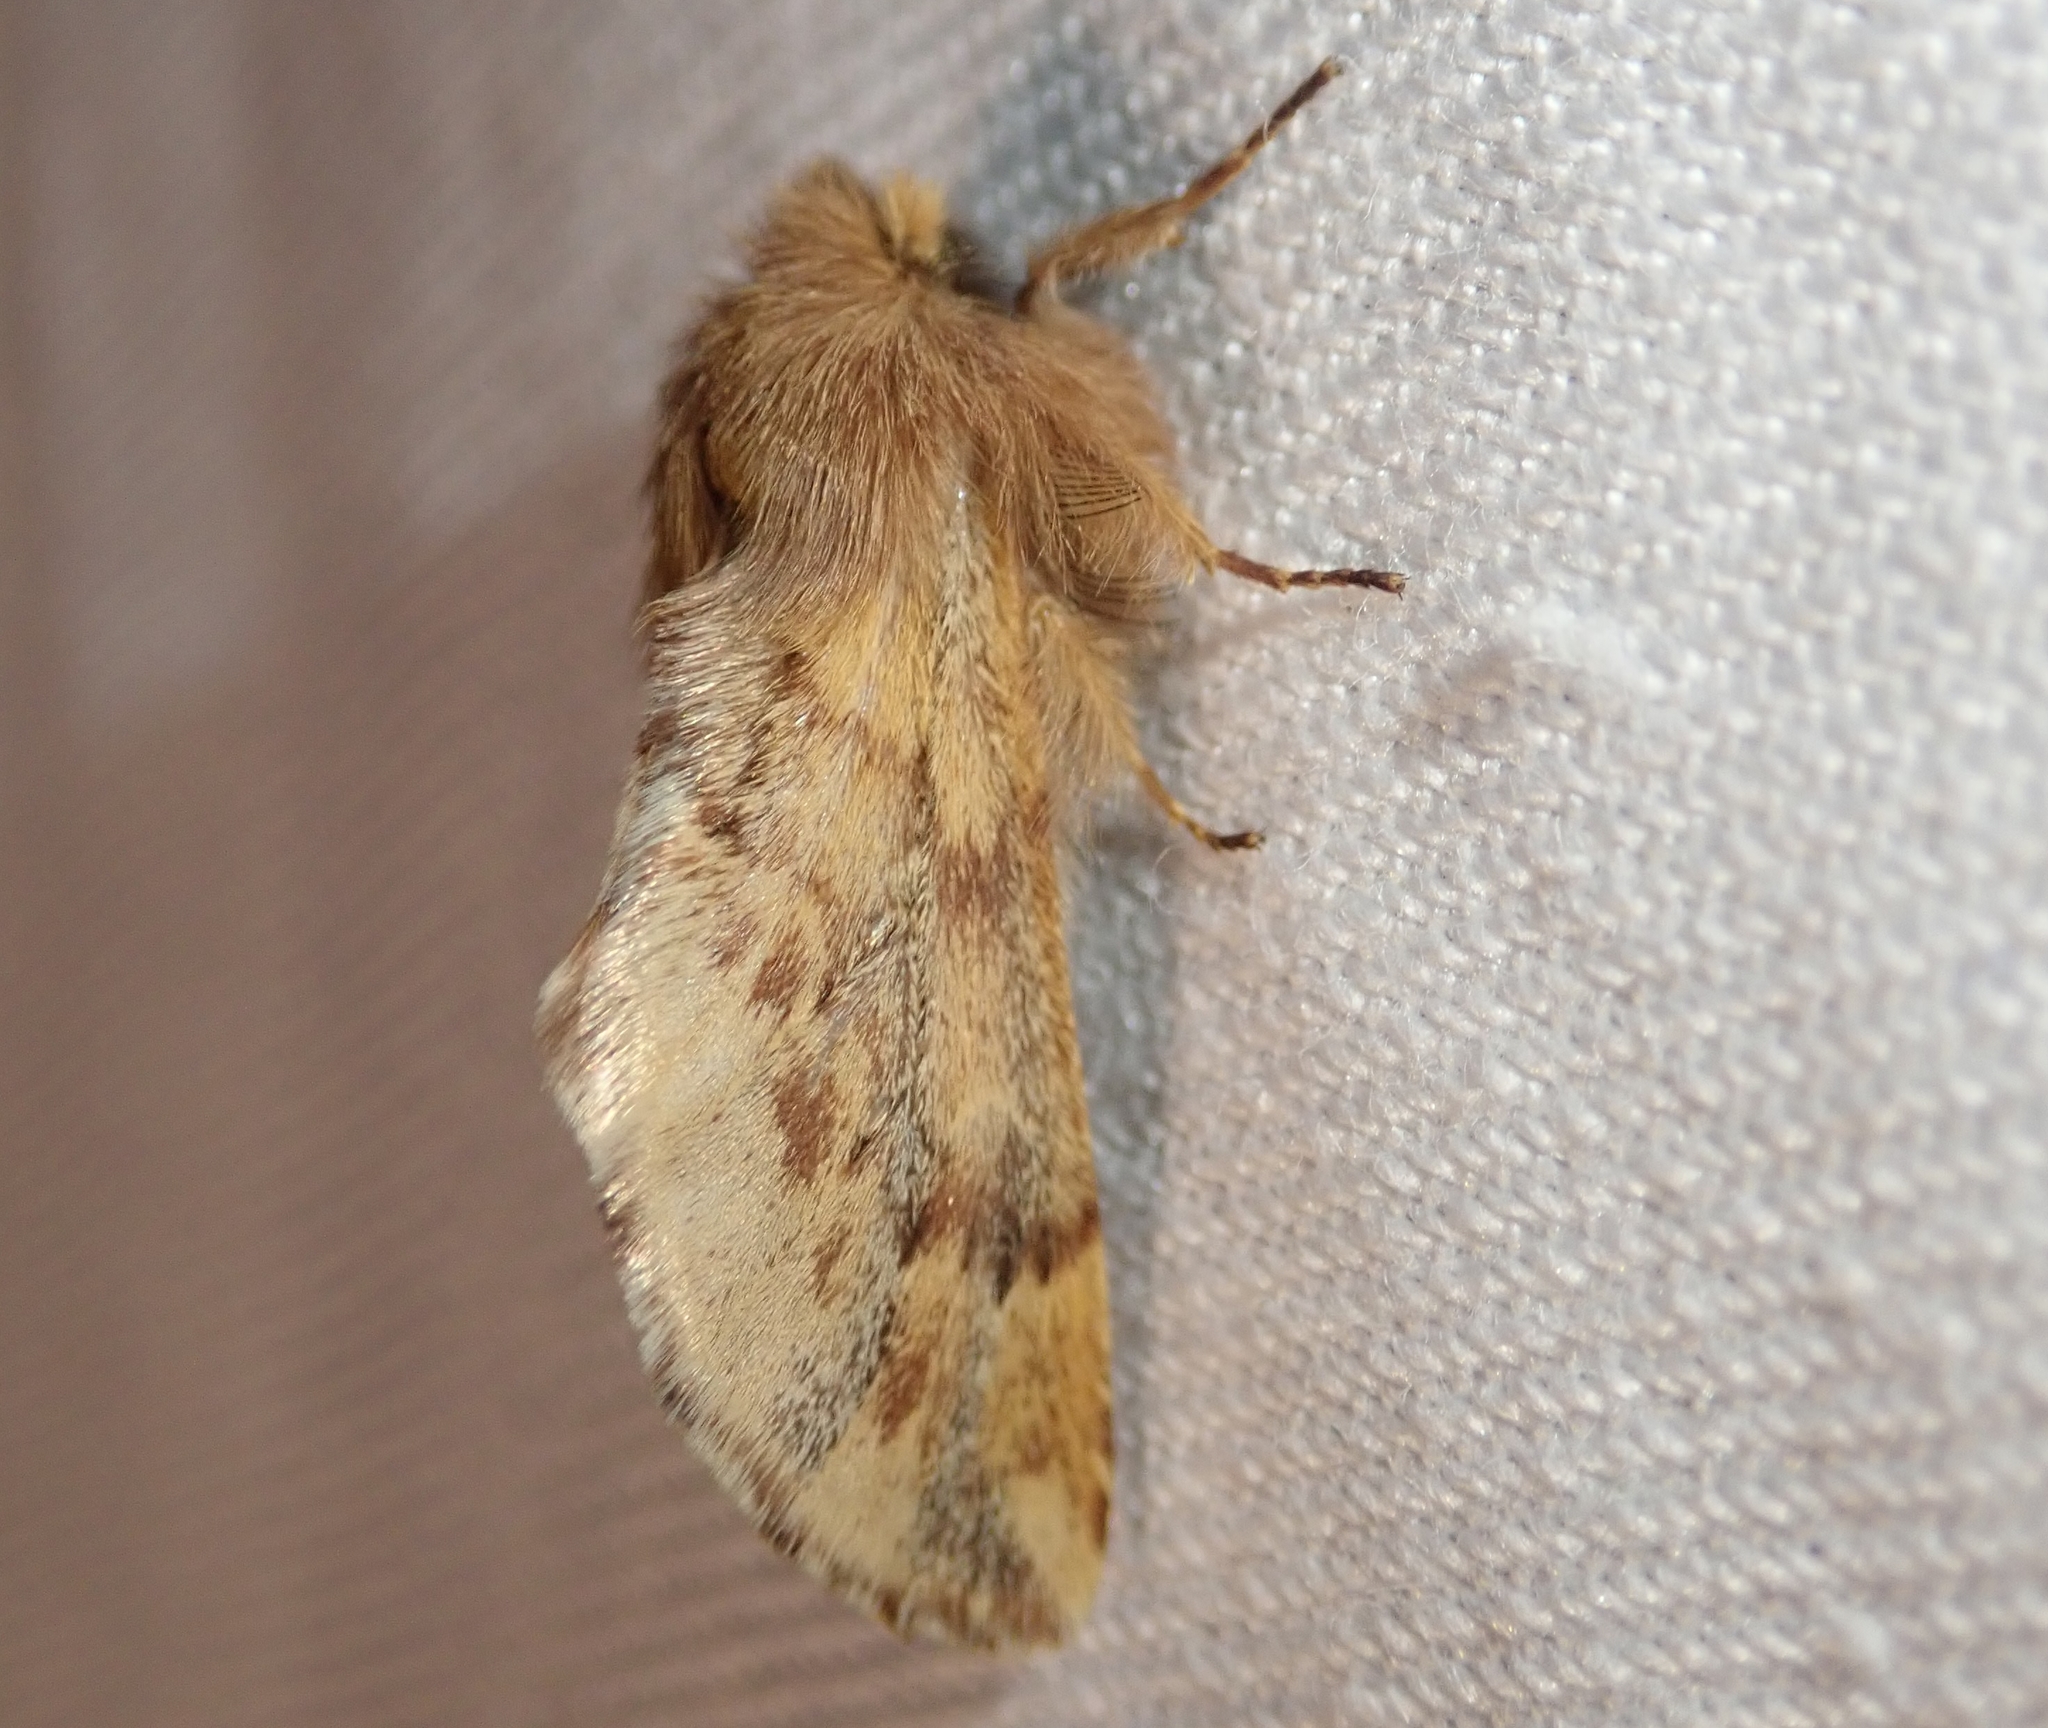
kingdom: Animalia
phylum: Arthropoda
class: Insecta
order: Lepidoptera
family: Notodontidae
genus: Ptilophora
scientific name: Ptilophora plumigera
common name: Plumed prominent
